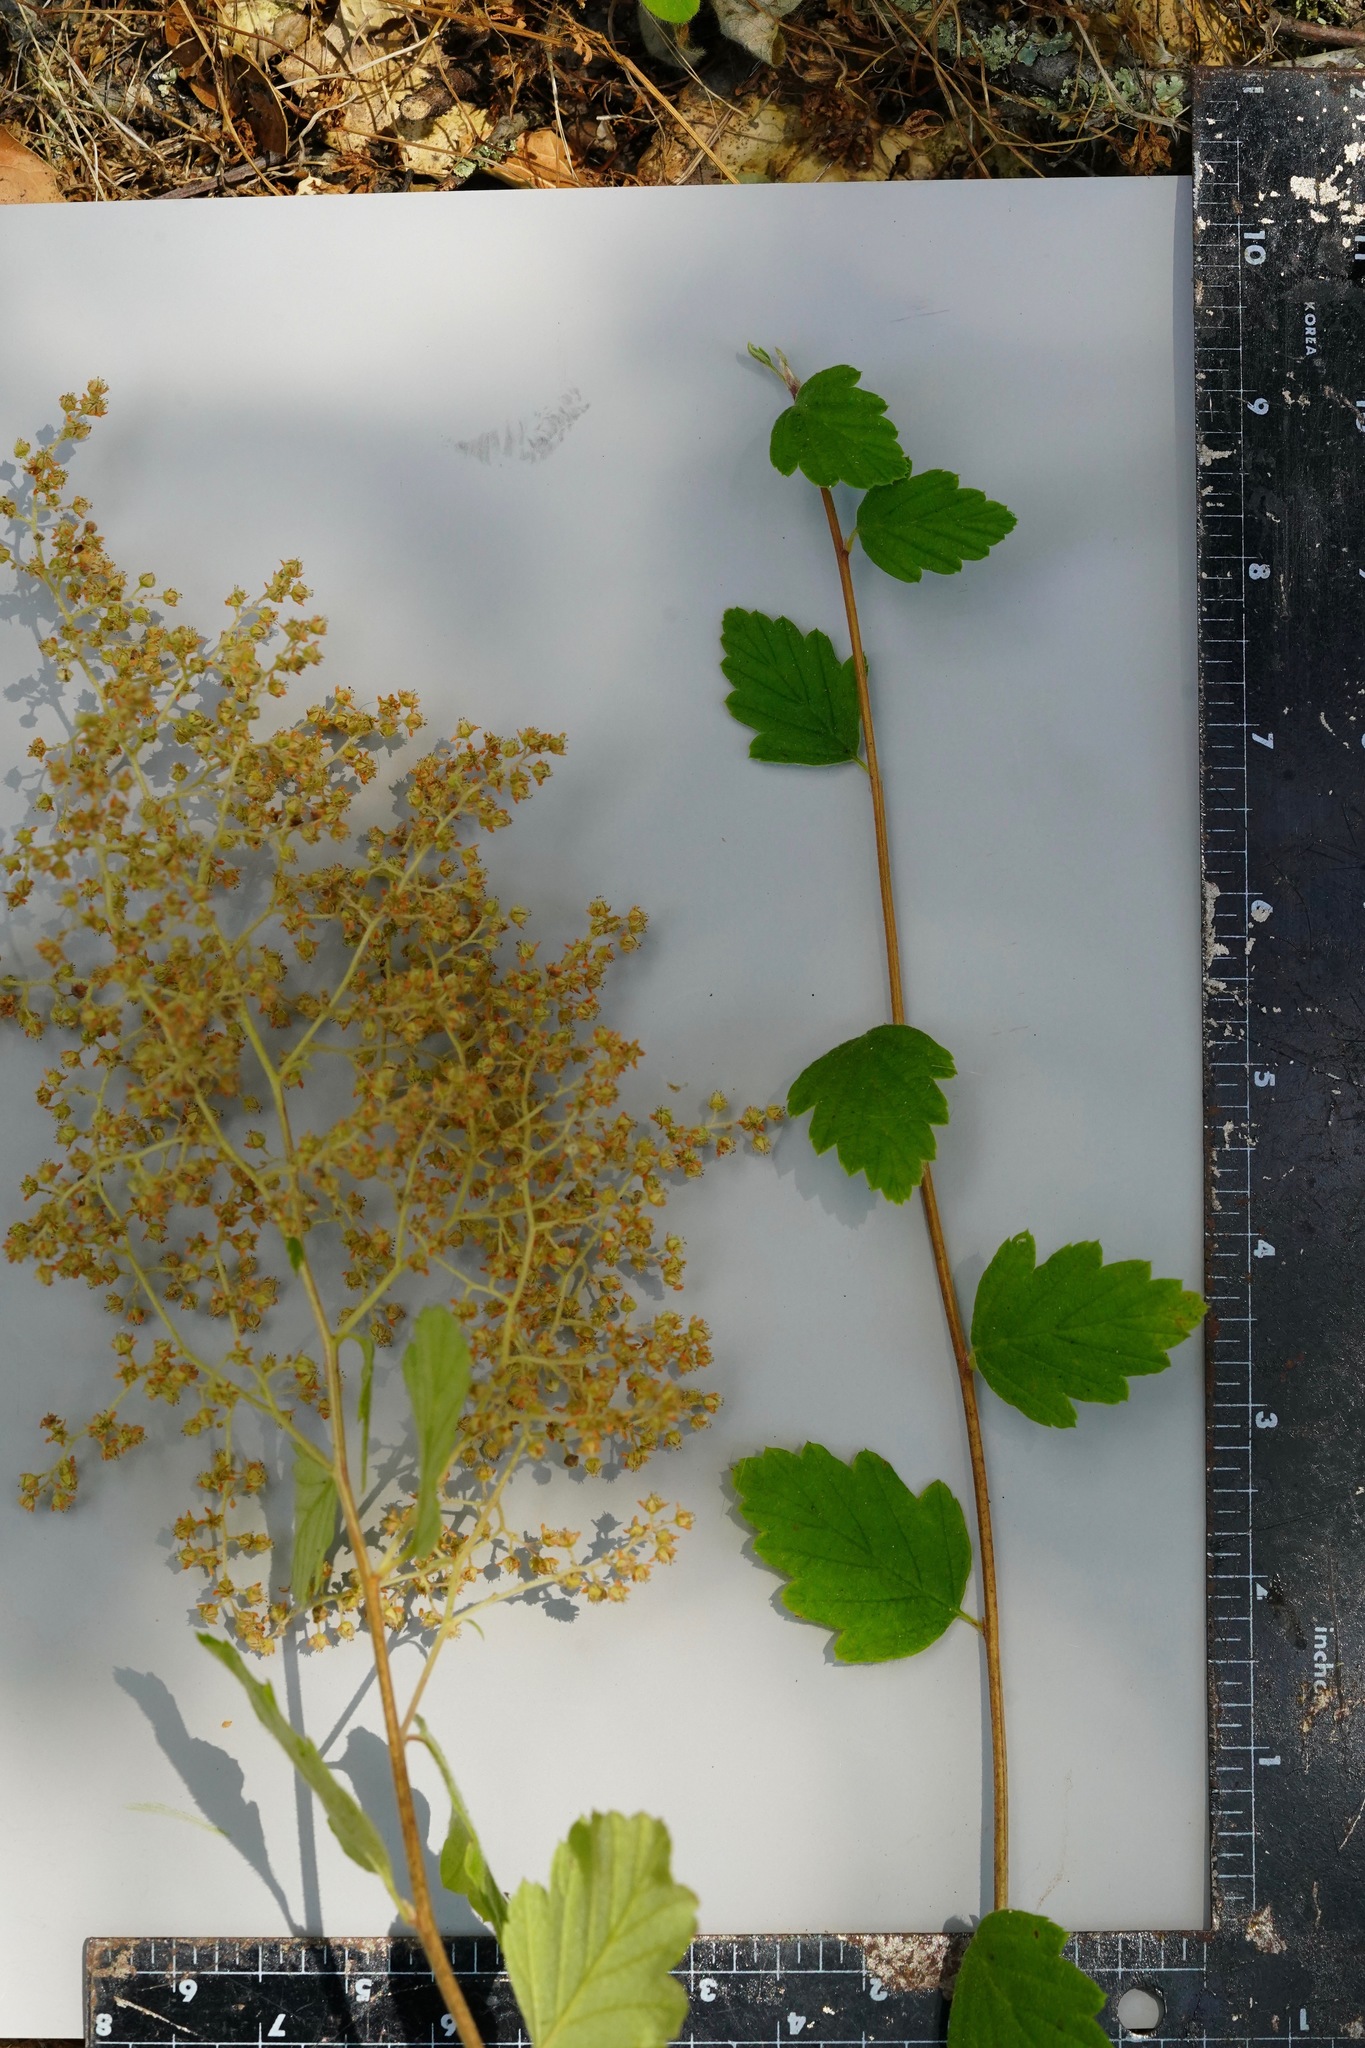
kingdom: Plantae
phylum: Tracheophyta
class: Magnoliopsida
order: Rosales
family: Rosaceae
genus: Holodiscus
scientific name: Holodiscus discolor
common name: Oceanspray
